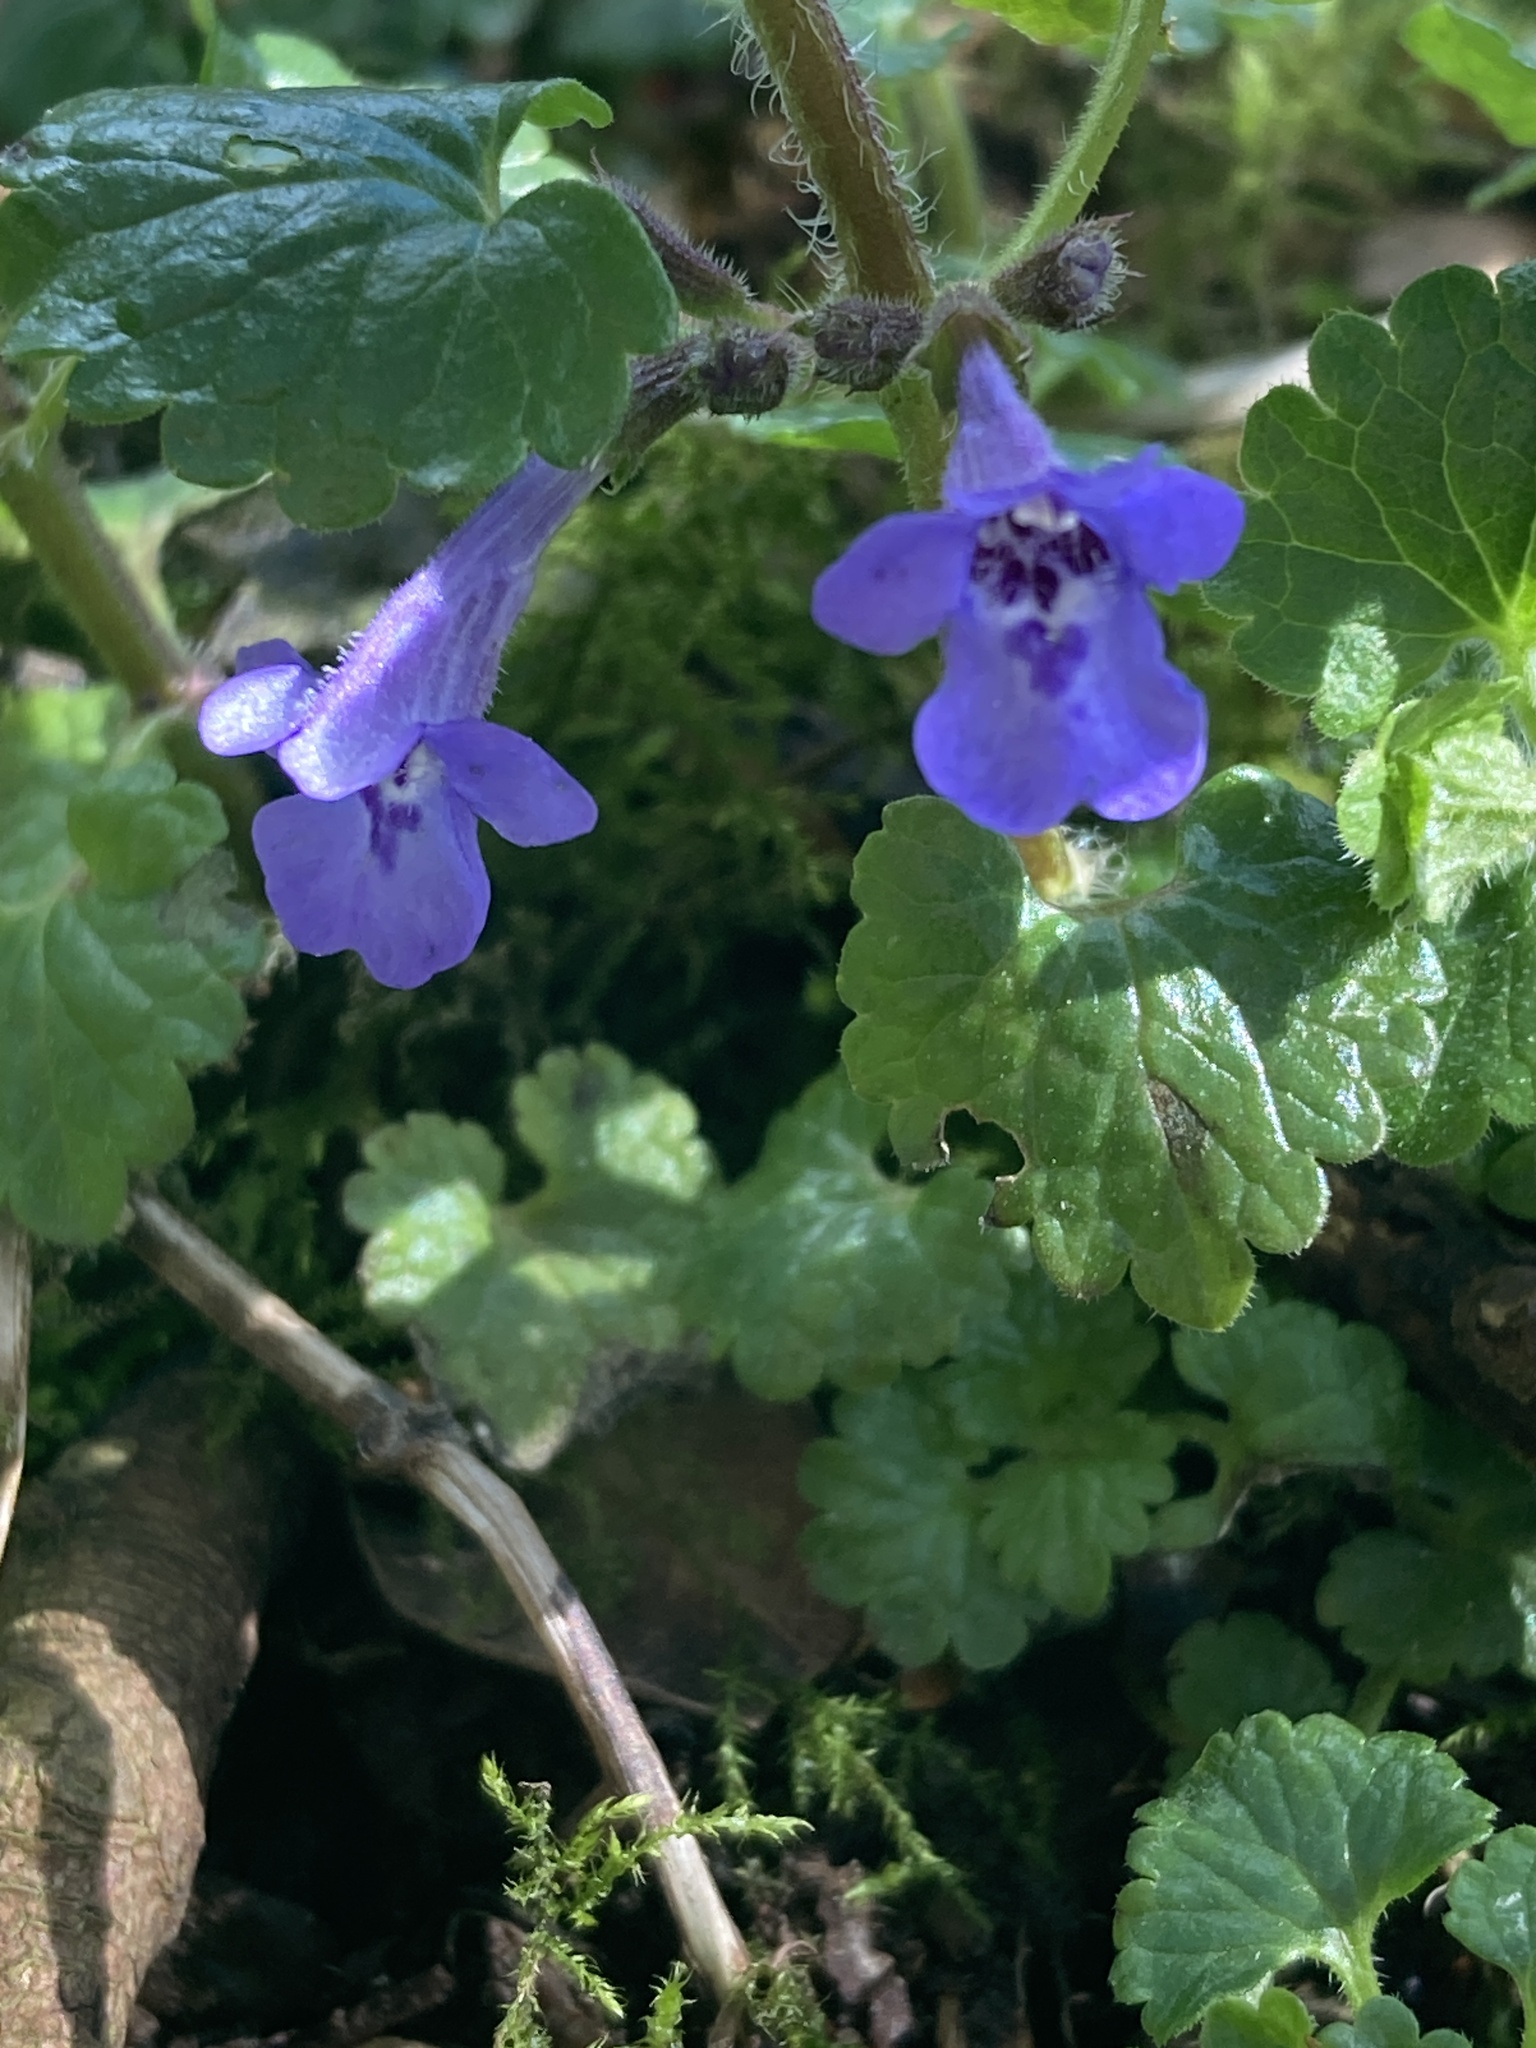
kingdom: Plantae
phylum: Tracheophyta
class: Magnoliopsida
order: Lamiales
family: Lamiaceae
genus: Glechoma
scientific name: Glechoma hederacea
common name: Ground ivy
